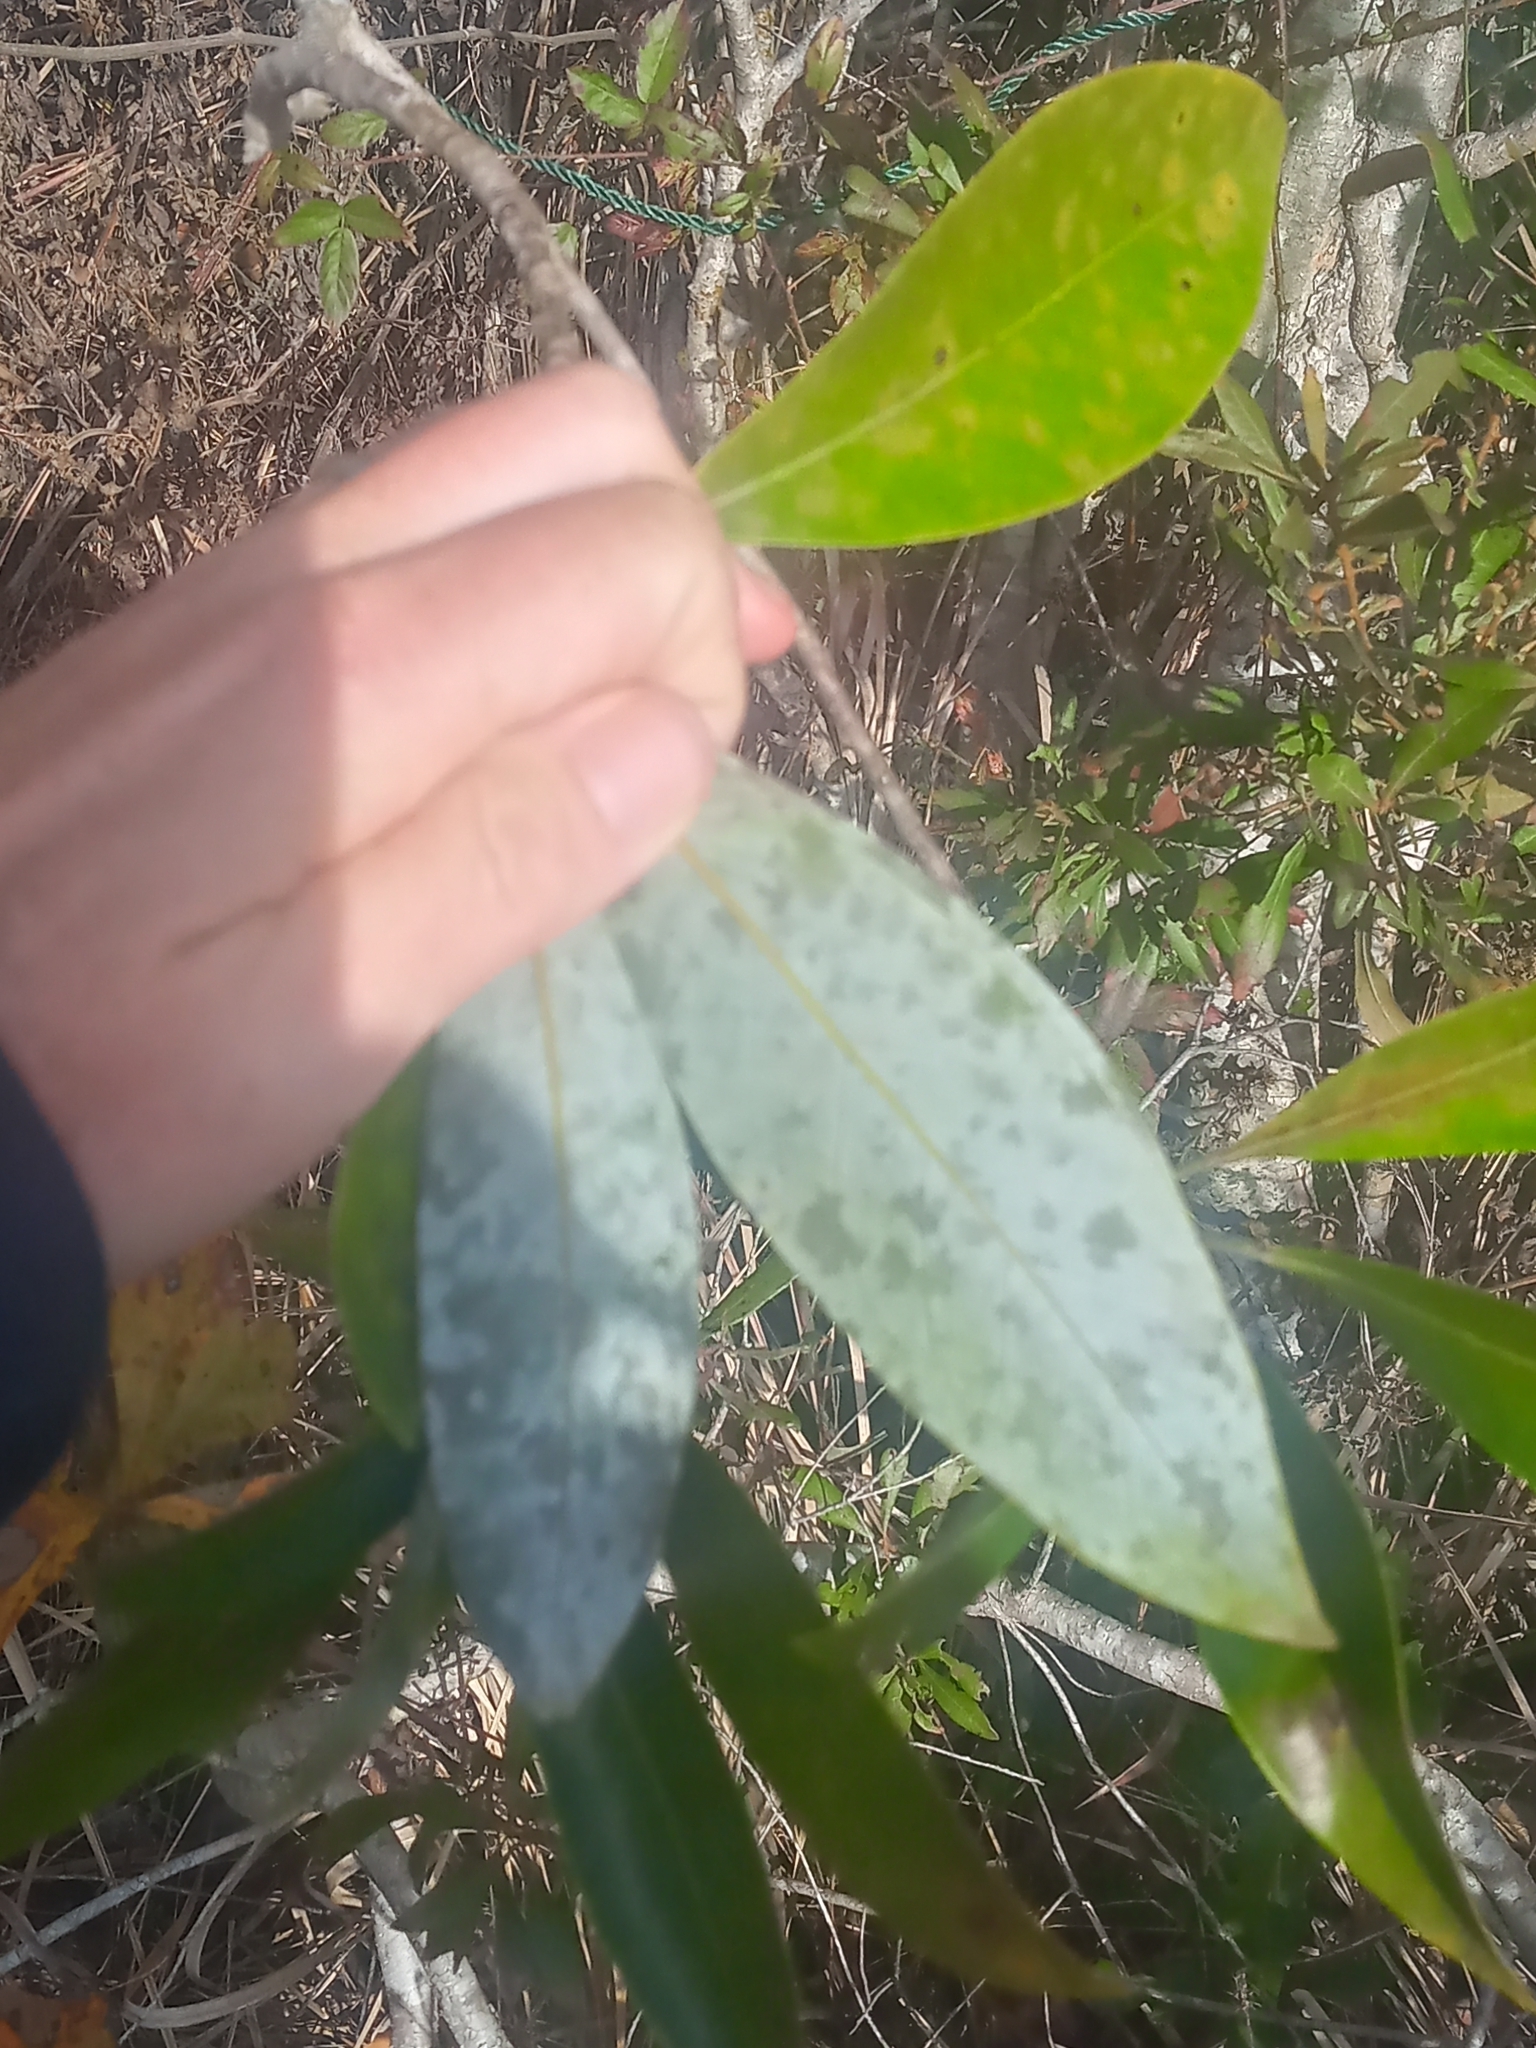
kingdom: Plantae
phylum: Tracheophyta
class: Magnoliopsida
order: Magnoliales
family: Magnoliaceae
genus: Magnolia
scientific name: Magnolia virginiana
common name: Swamp bay
